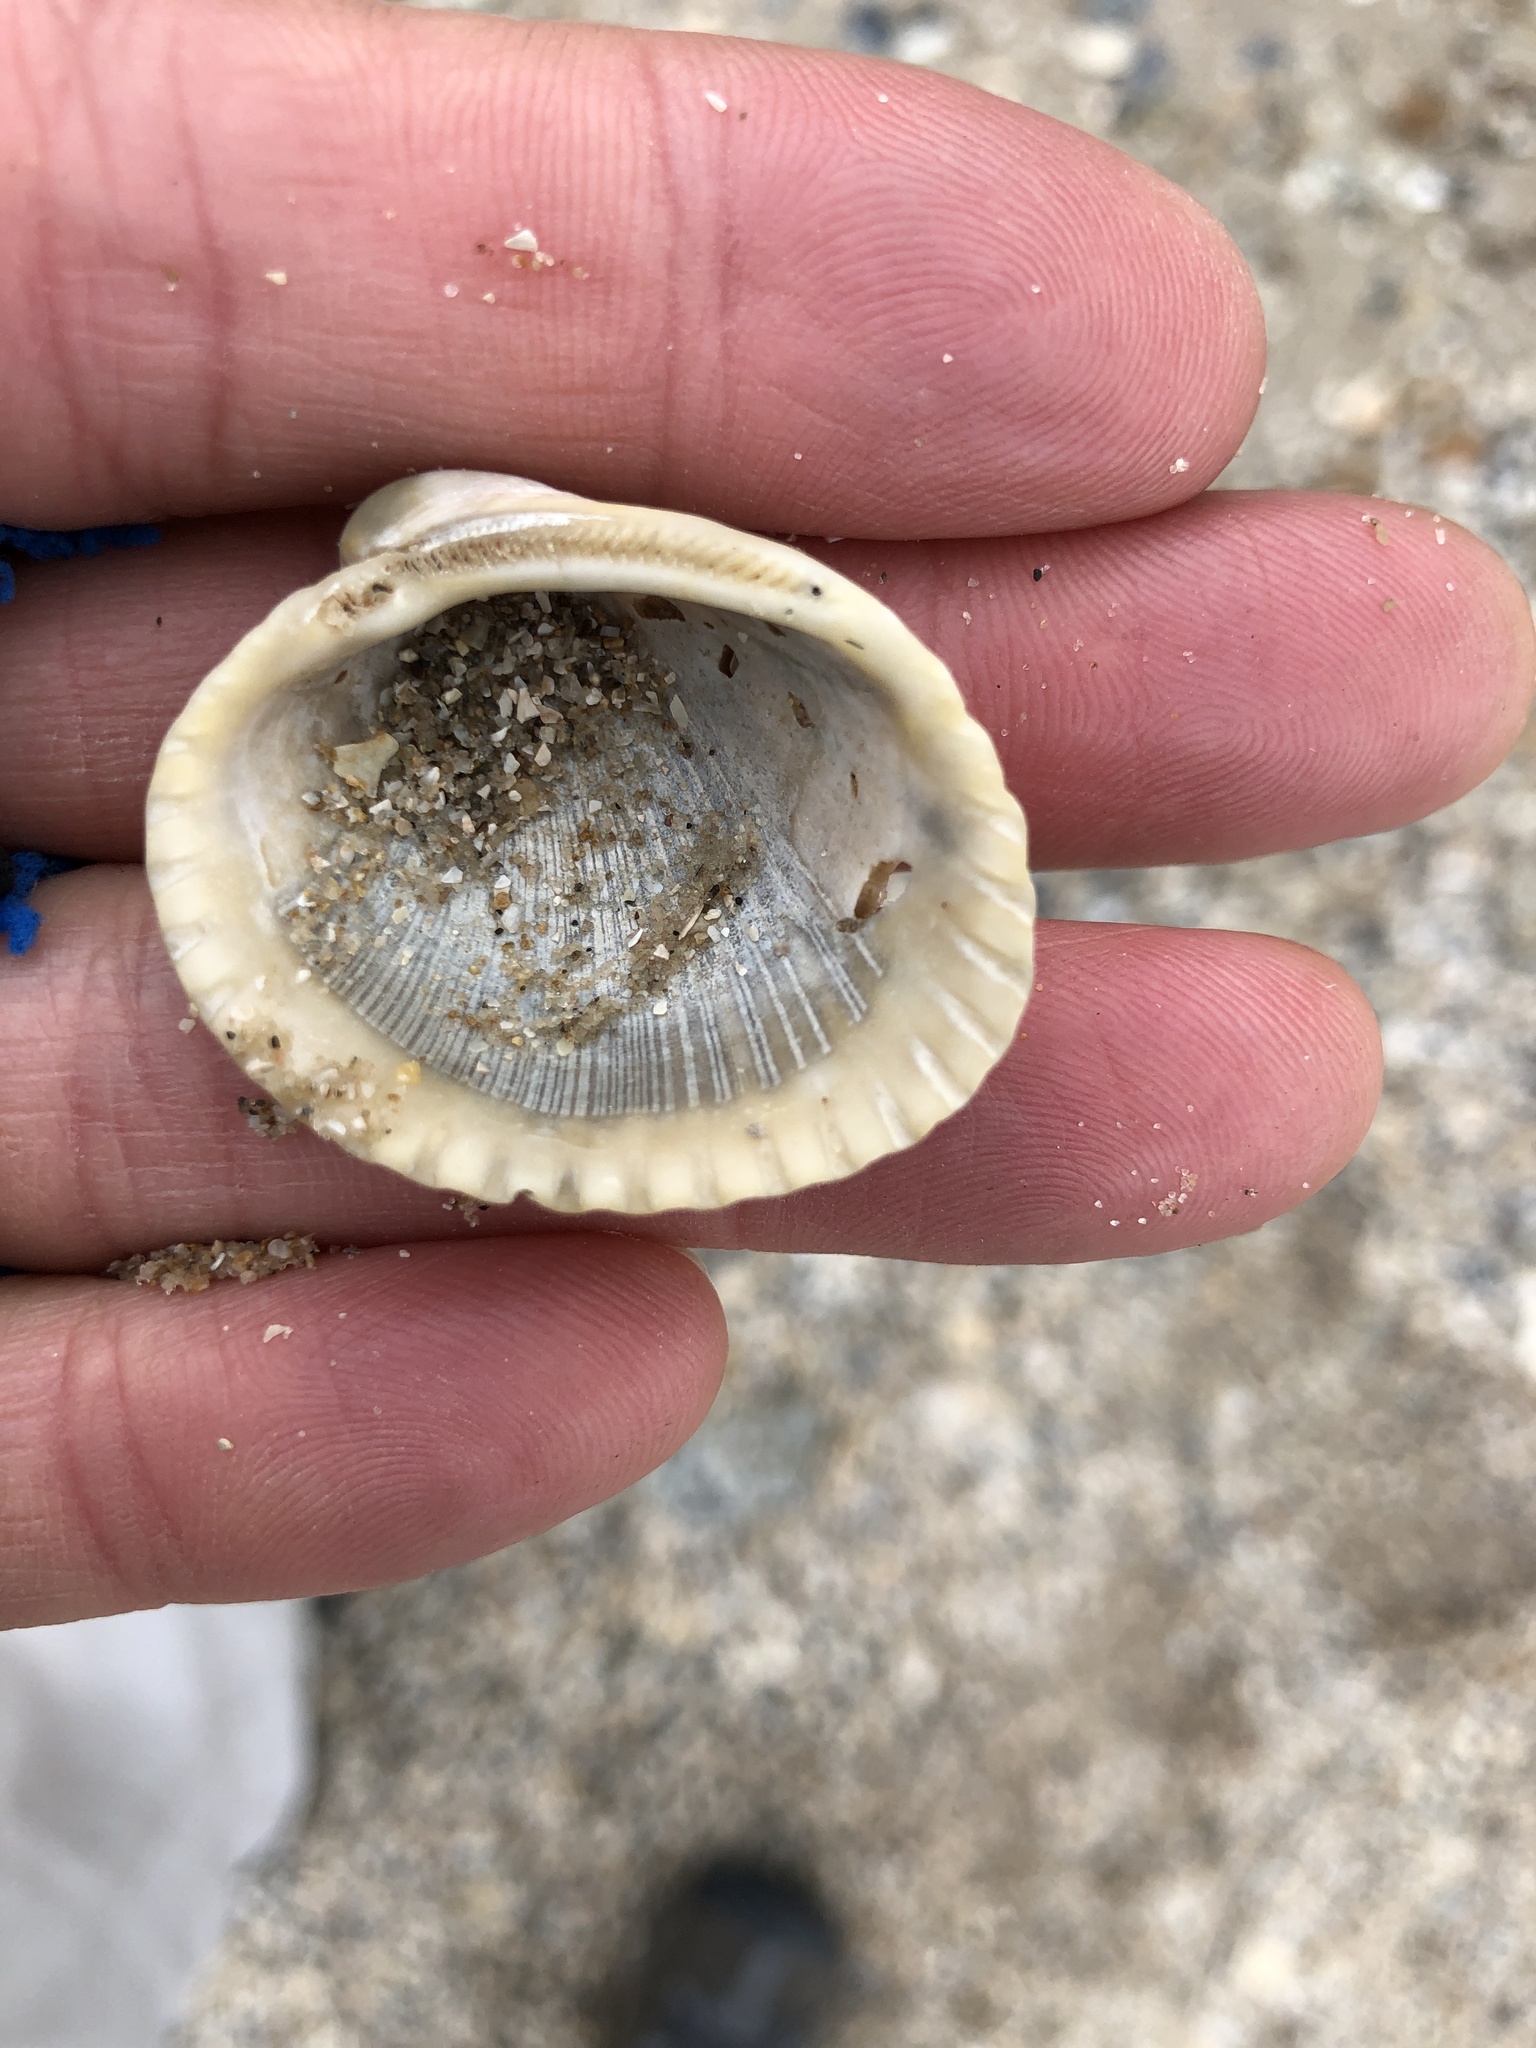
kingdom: Animalia
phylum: Mollusca
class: Bivalvia
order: Arcida
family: Arcidae
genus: Lunarca
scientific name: Lunarca ovalis
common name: Blood ark
